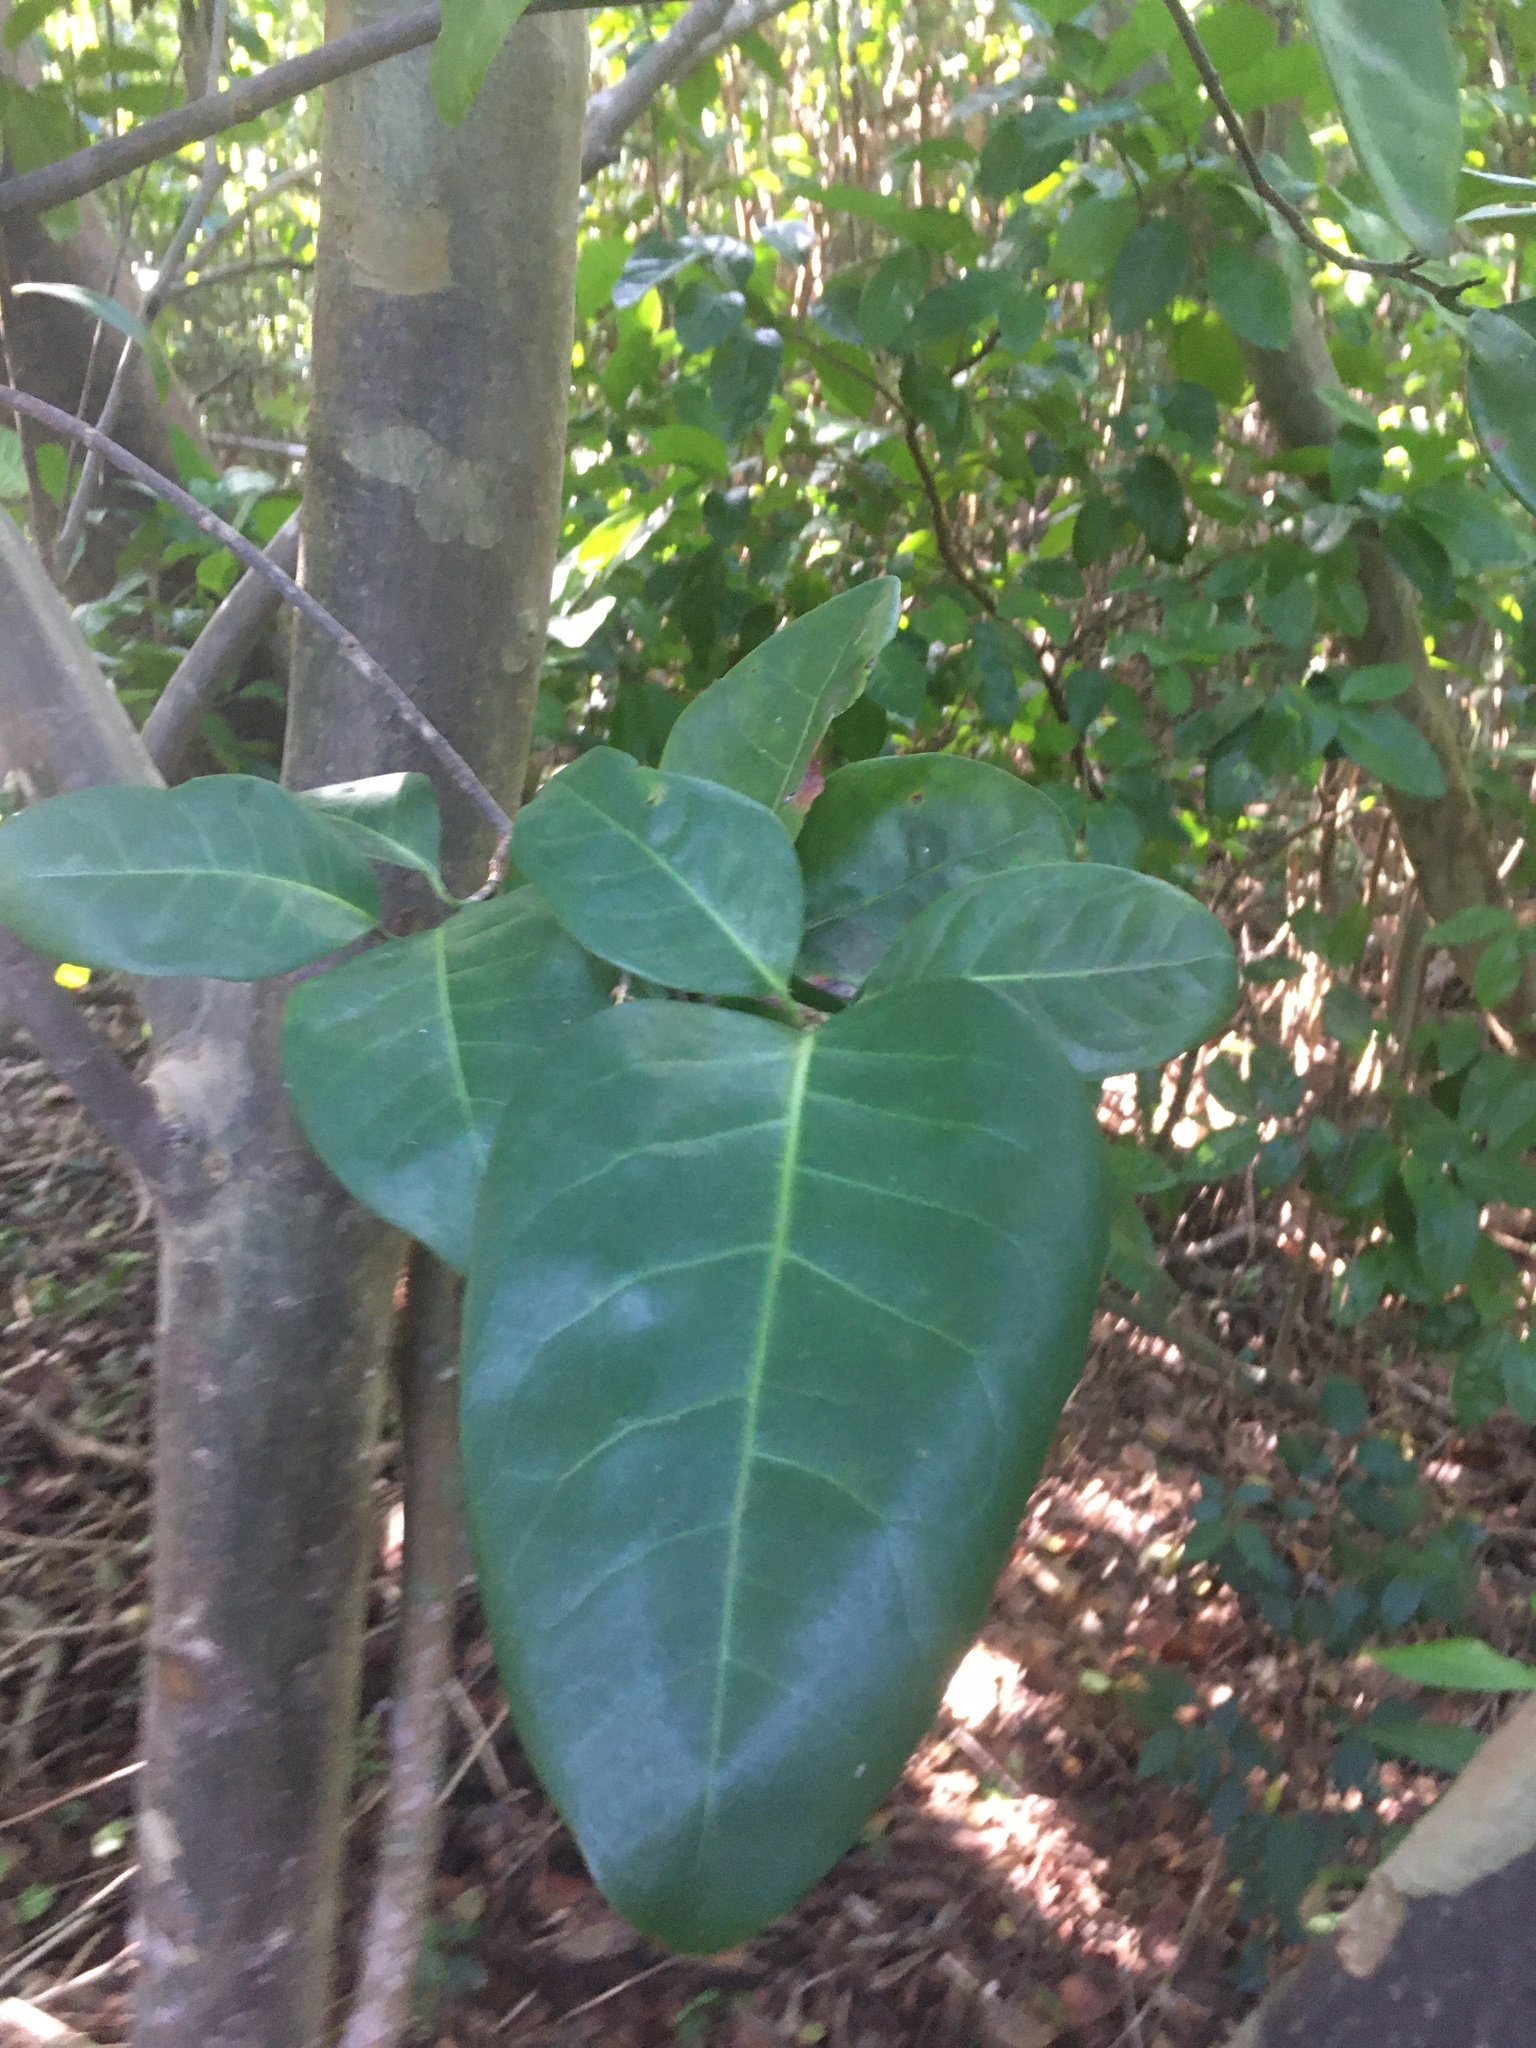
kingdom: Plantae
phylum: Tracheophyta
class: Magnoliopsida
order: Caryophyllales
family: Polygonaceae
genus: Coccoloba
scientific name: Coccoloba diversifolia
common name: Pigeon-plum
